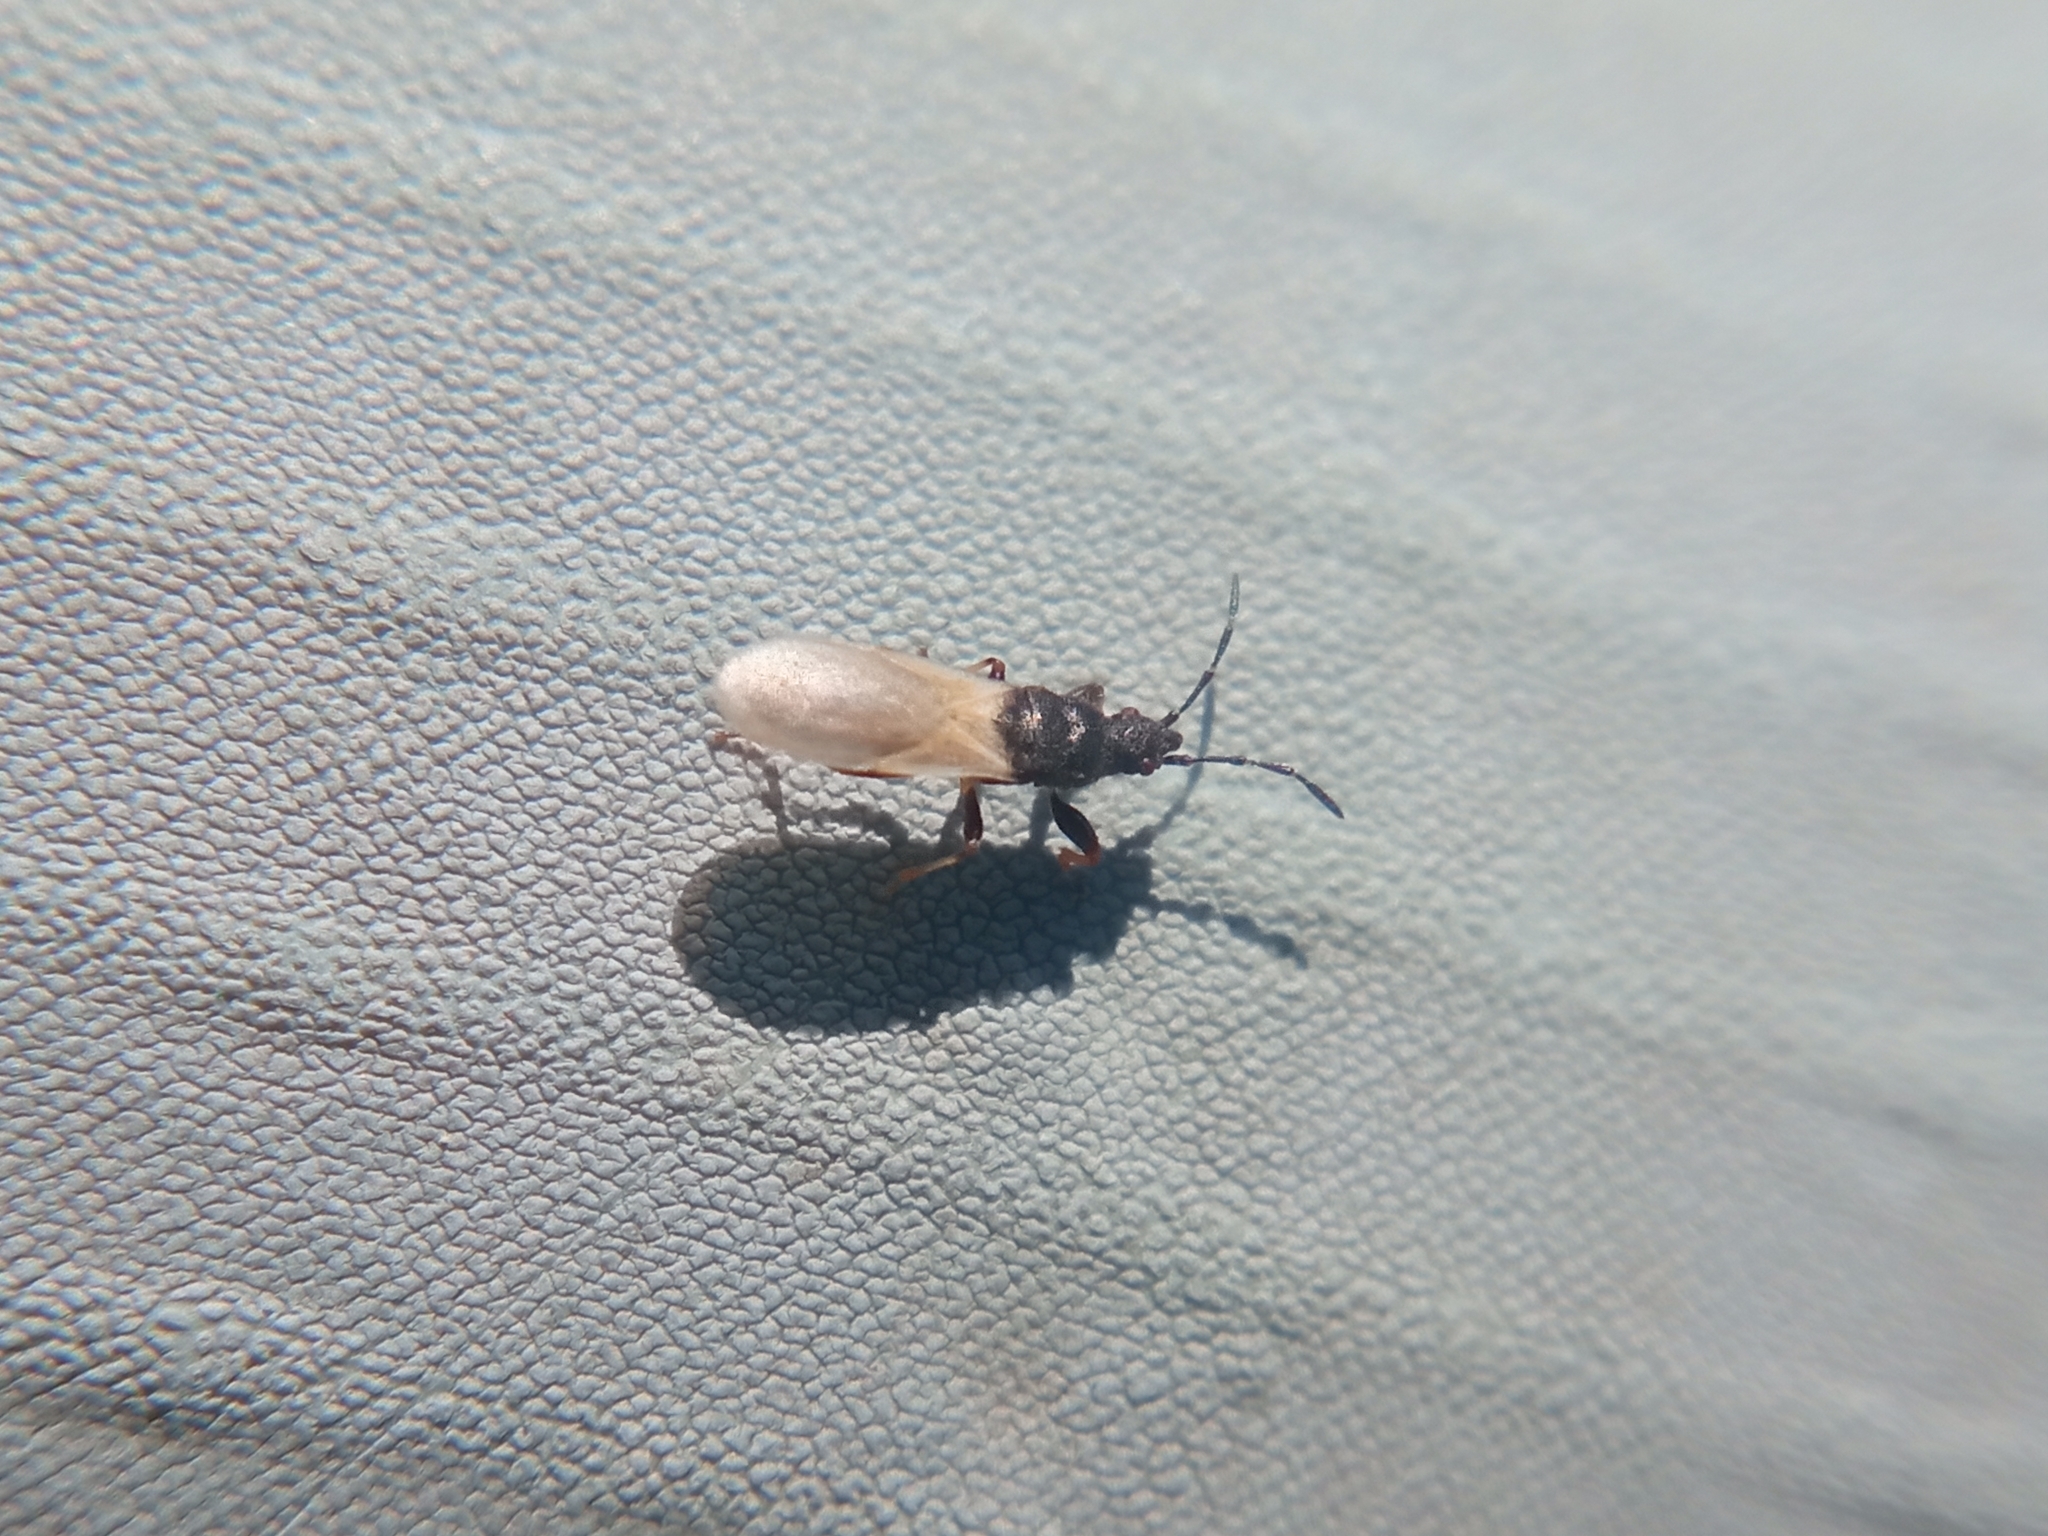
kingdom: Animalia
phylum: Arthropoda
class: Insecta
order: Hemiptera
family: Oxycarenidae
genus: Brachyplax
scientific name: Brachyplax tenuis
